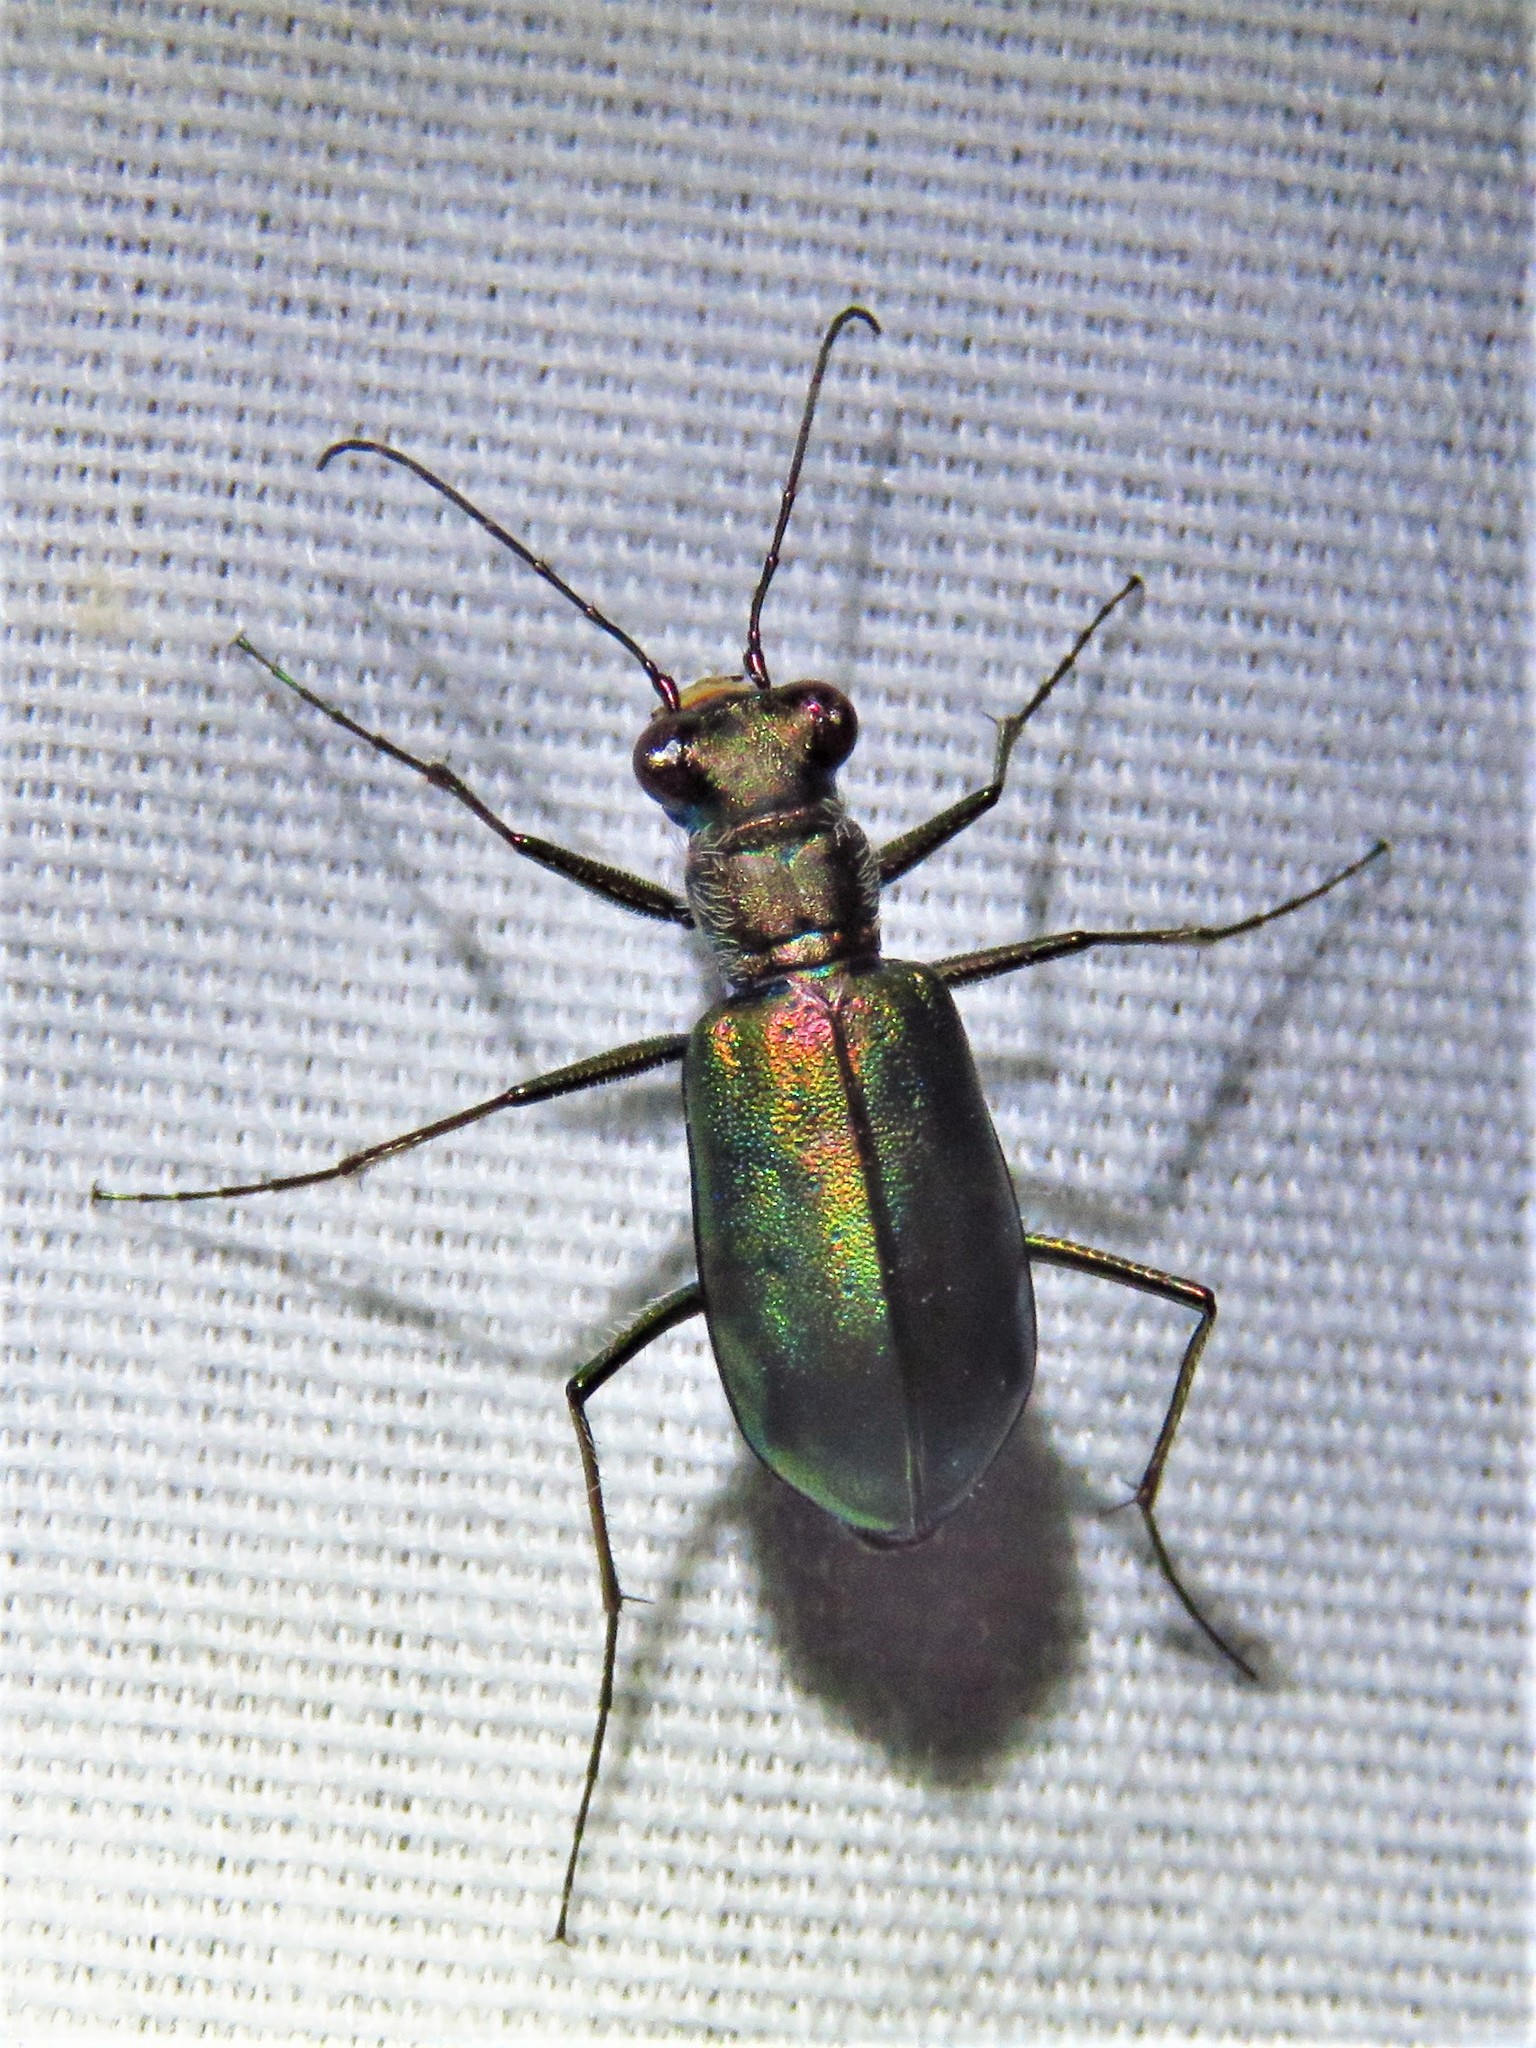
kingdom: Animalia
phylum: Arthropoda
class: Insecta
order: Coleoptera
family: Carabidae
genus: Cicindela
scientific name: Cicindela punctulata
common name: Punctured tiger beetle
